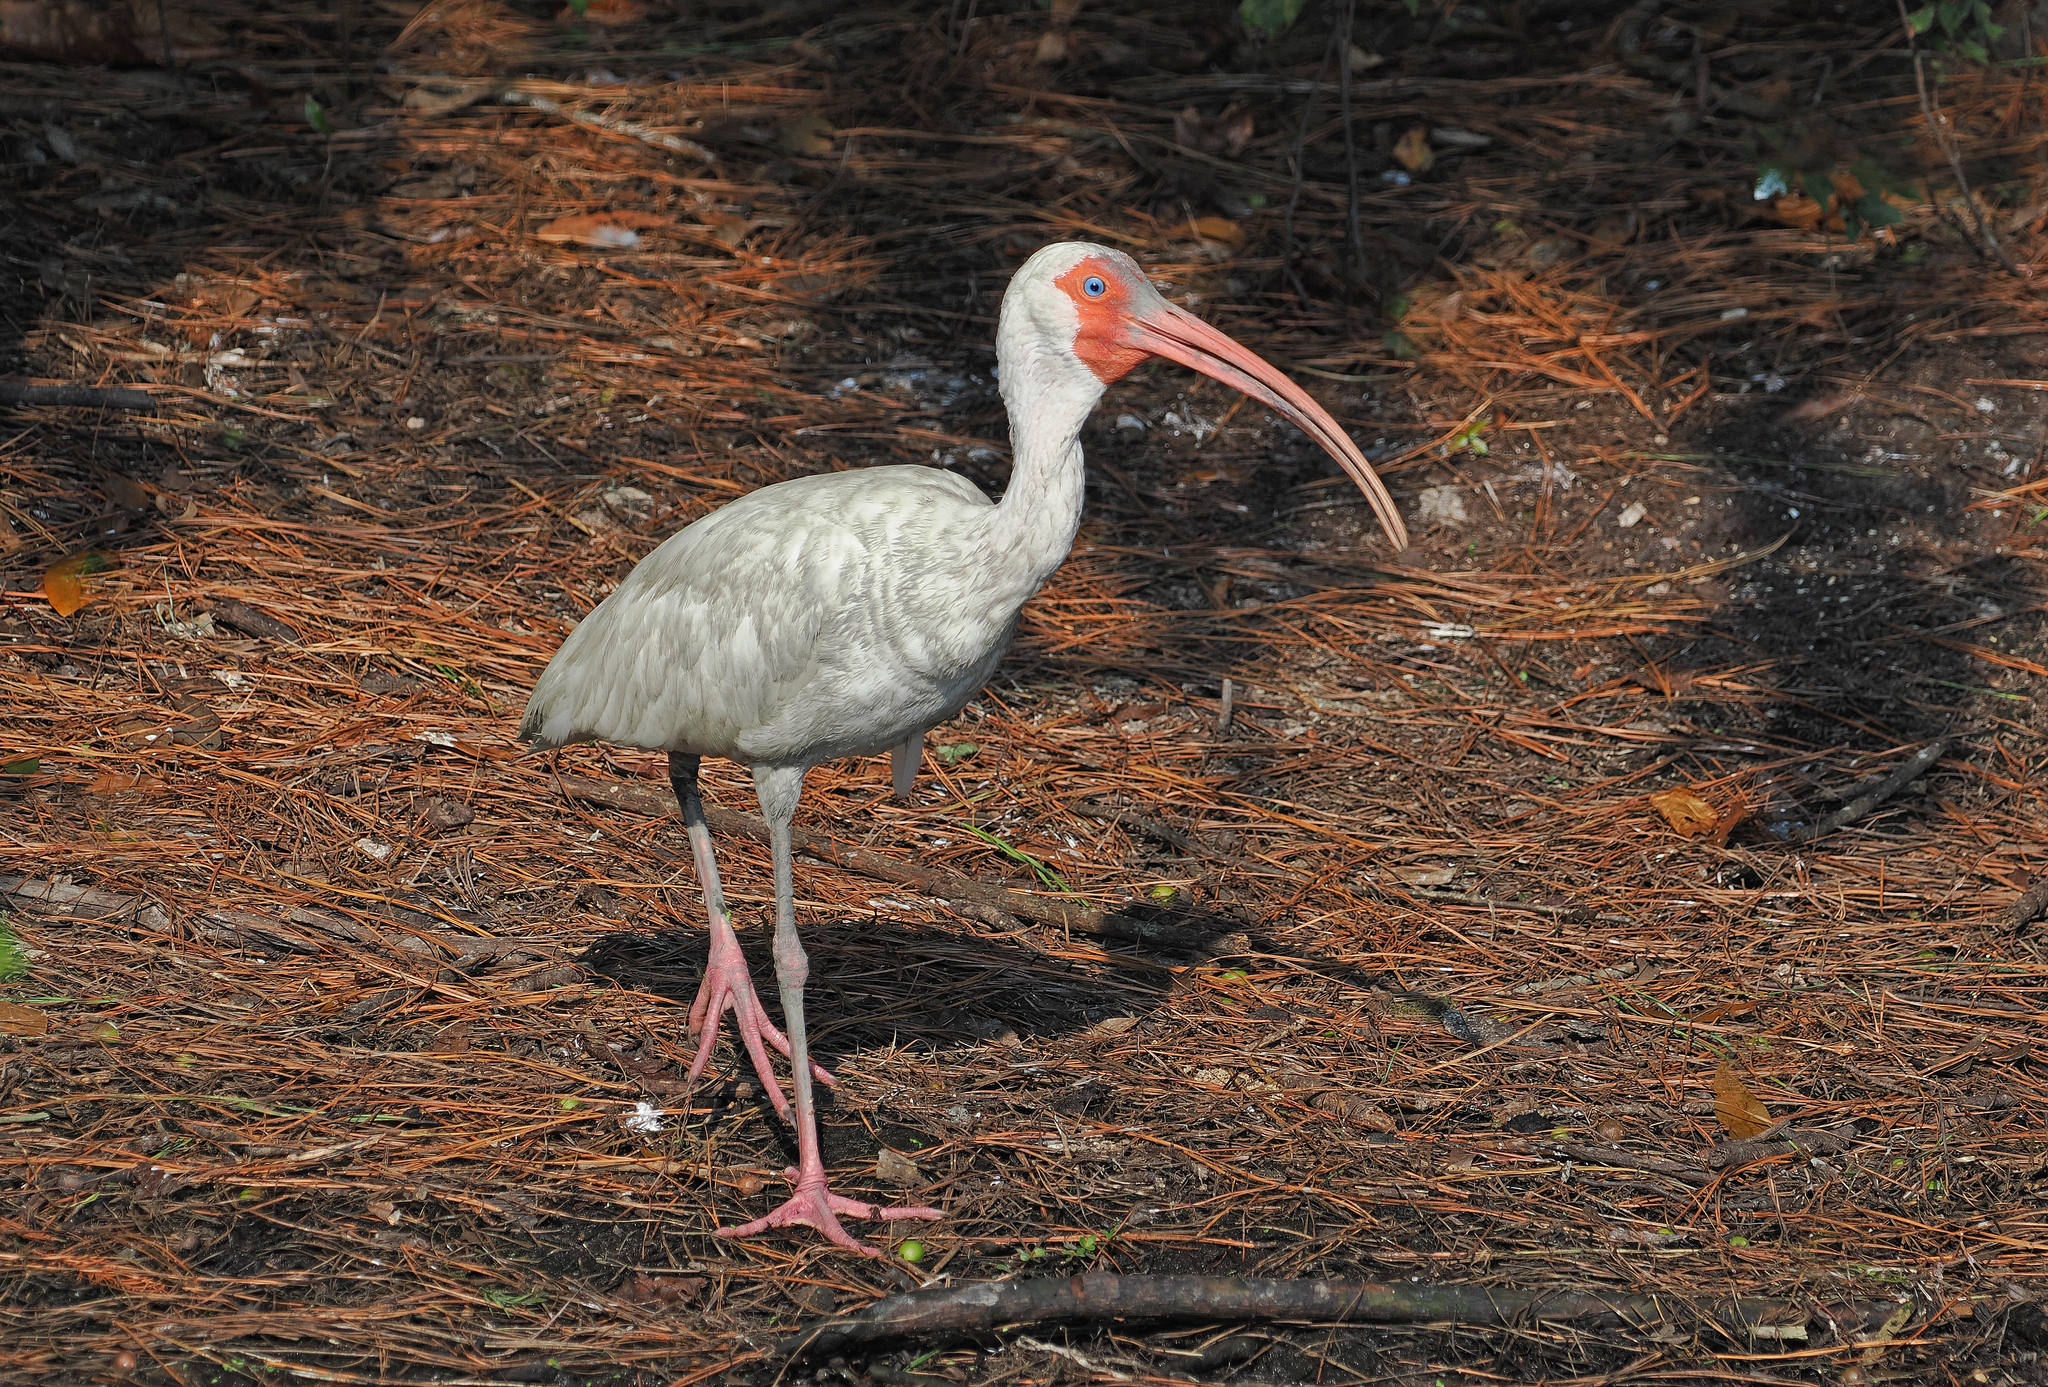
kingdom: Animalia
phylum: Chordata
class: Aves
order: Pelecaniformes
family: Threskiornithidae
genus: Eudocimus
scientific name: Eudocimus albus
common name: White ibis
